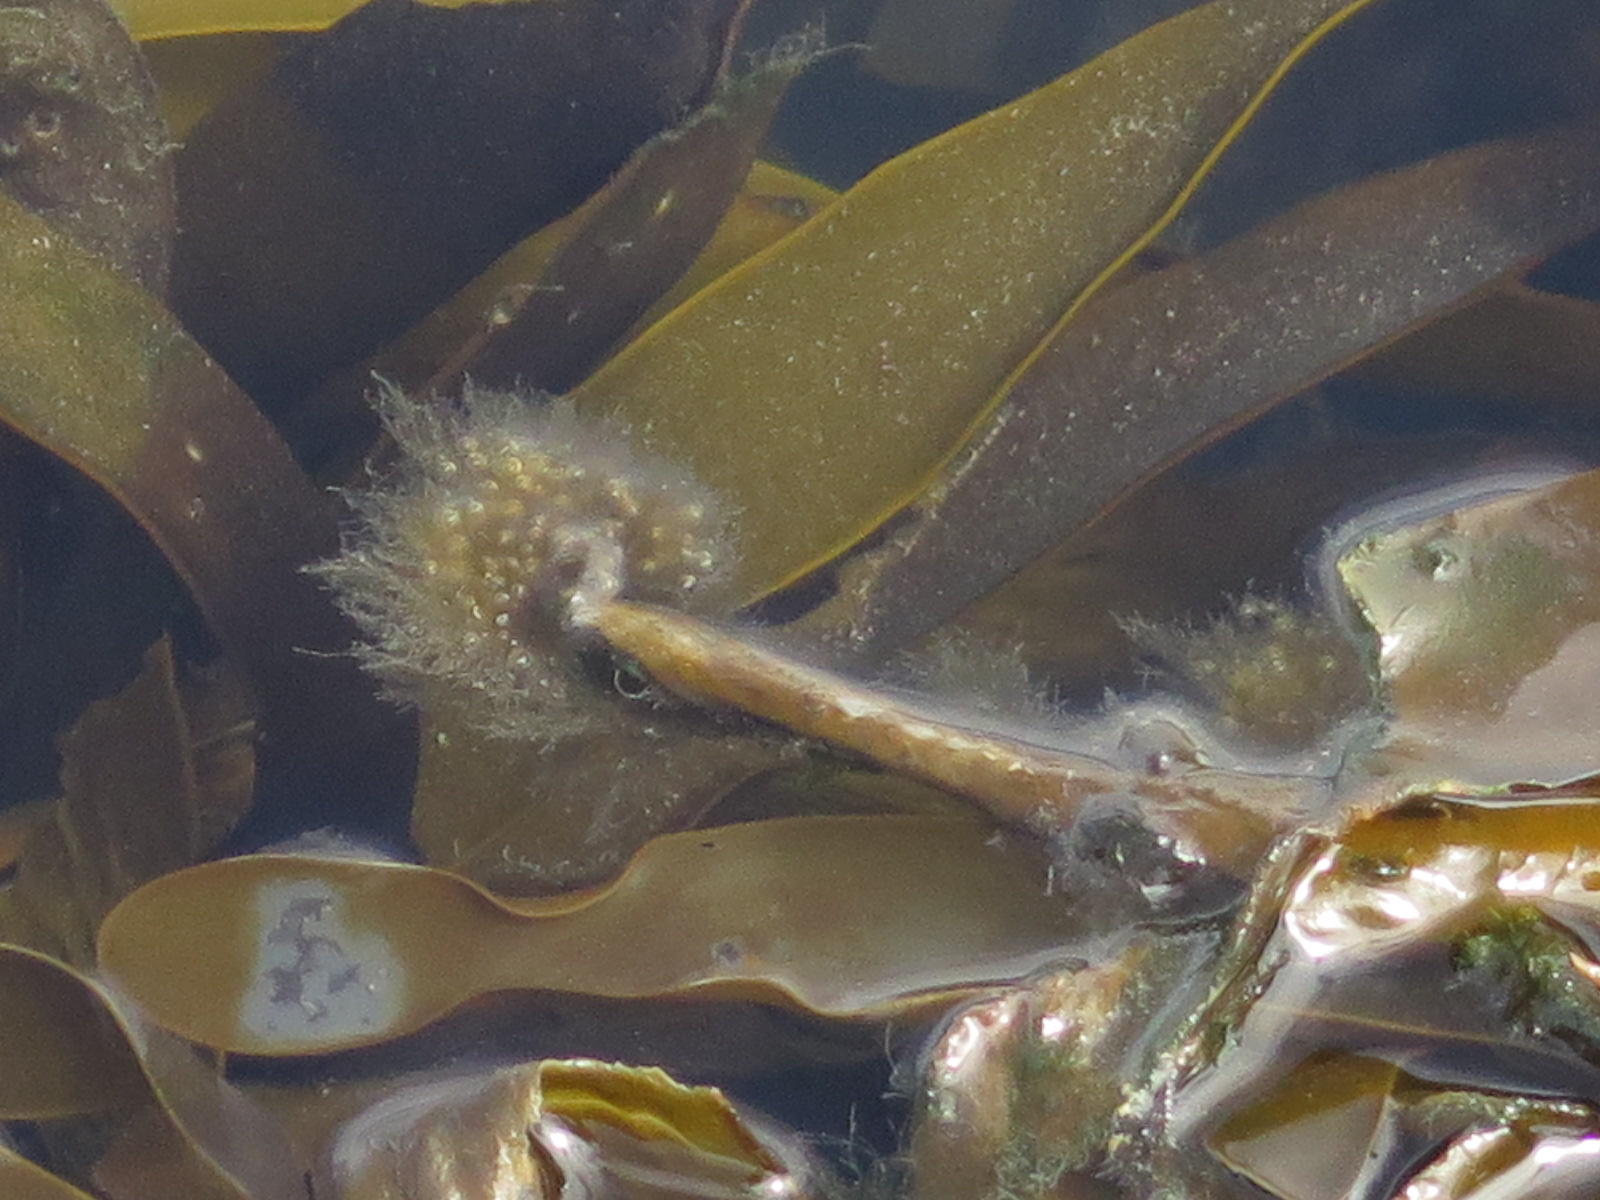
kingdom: Chromista
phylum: Ochrophyta
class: Phaeophyceae
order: Laminariales
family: Lessoniaceae
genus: Ecklonia
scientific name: Ecklonia radiata
